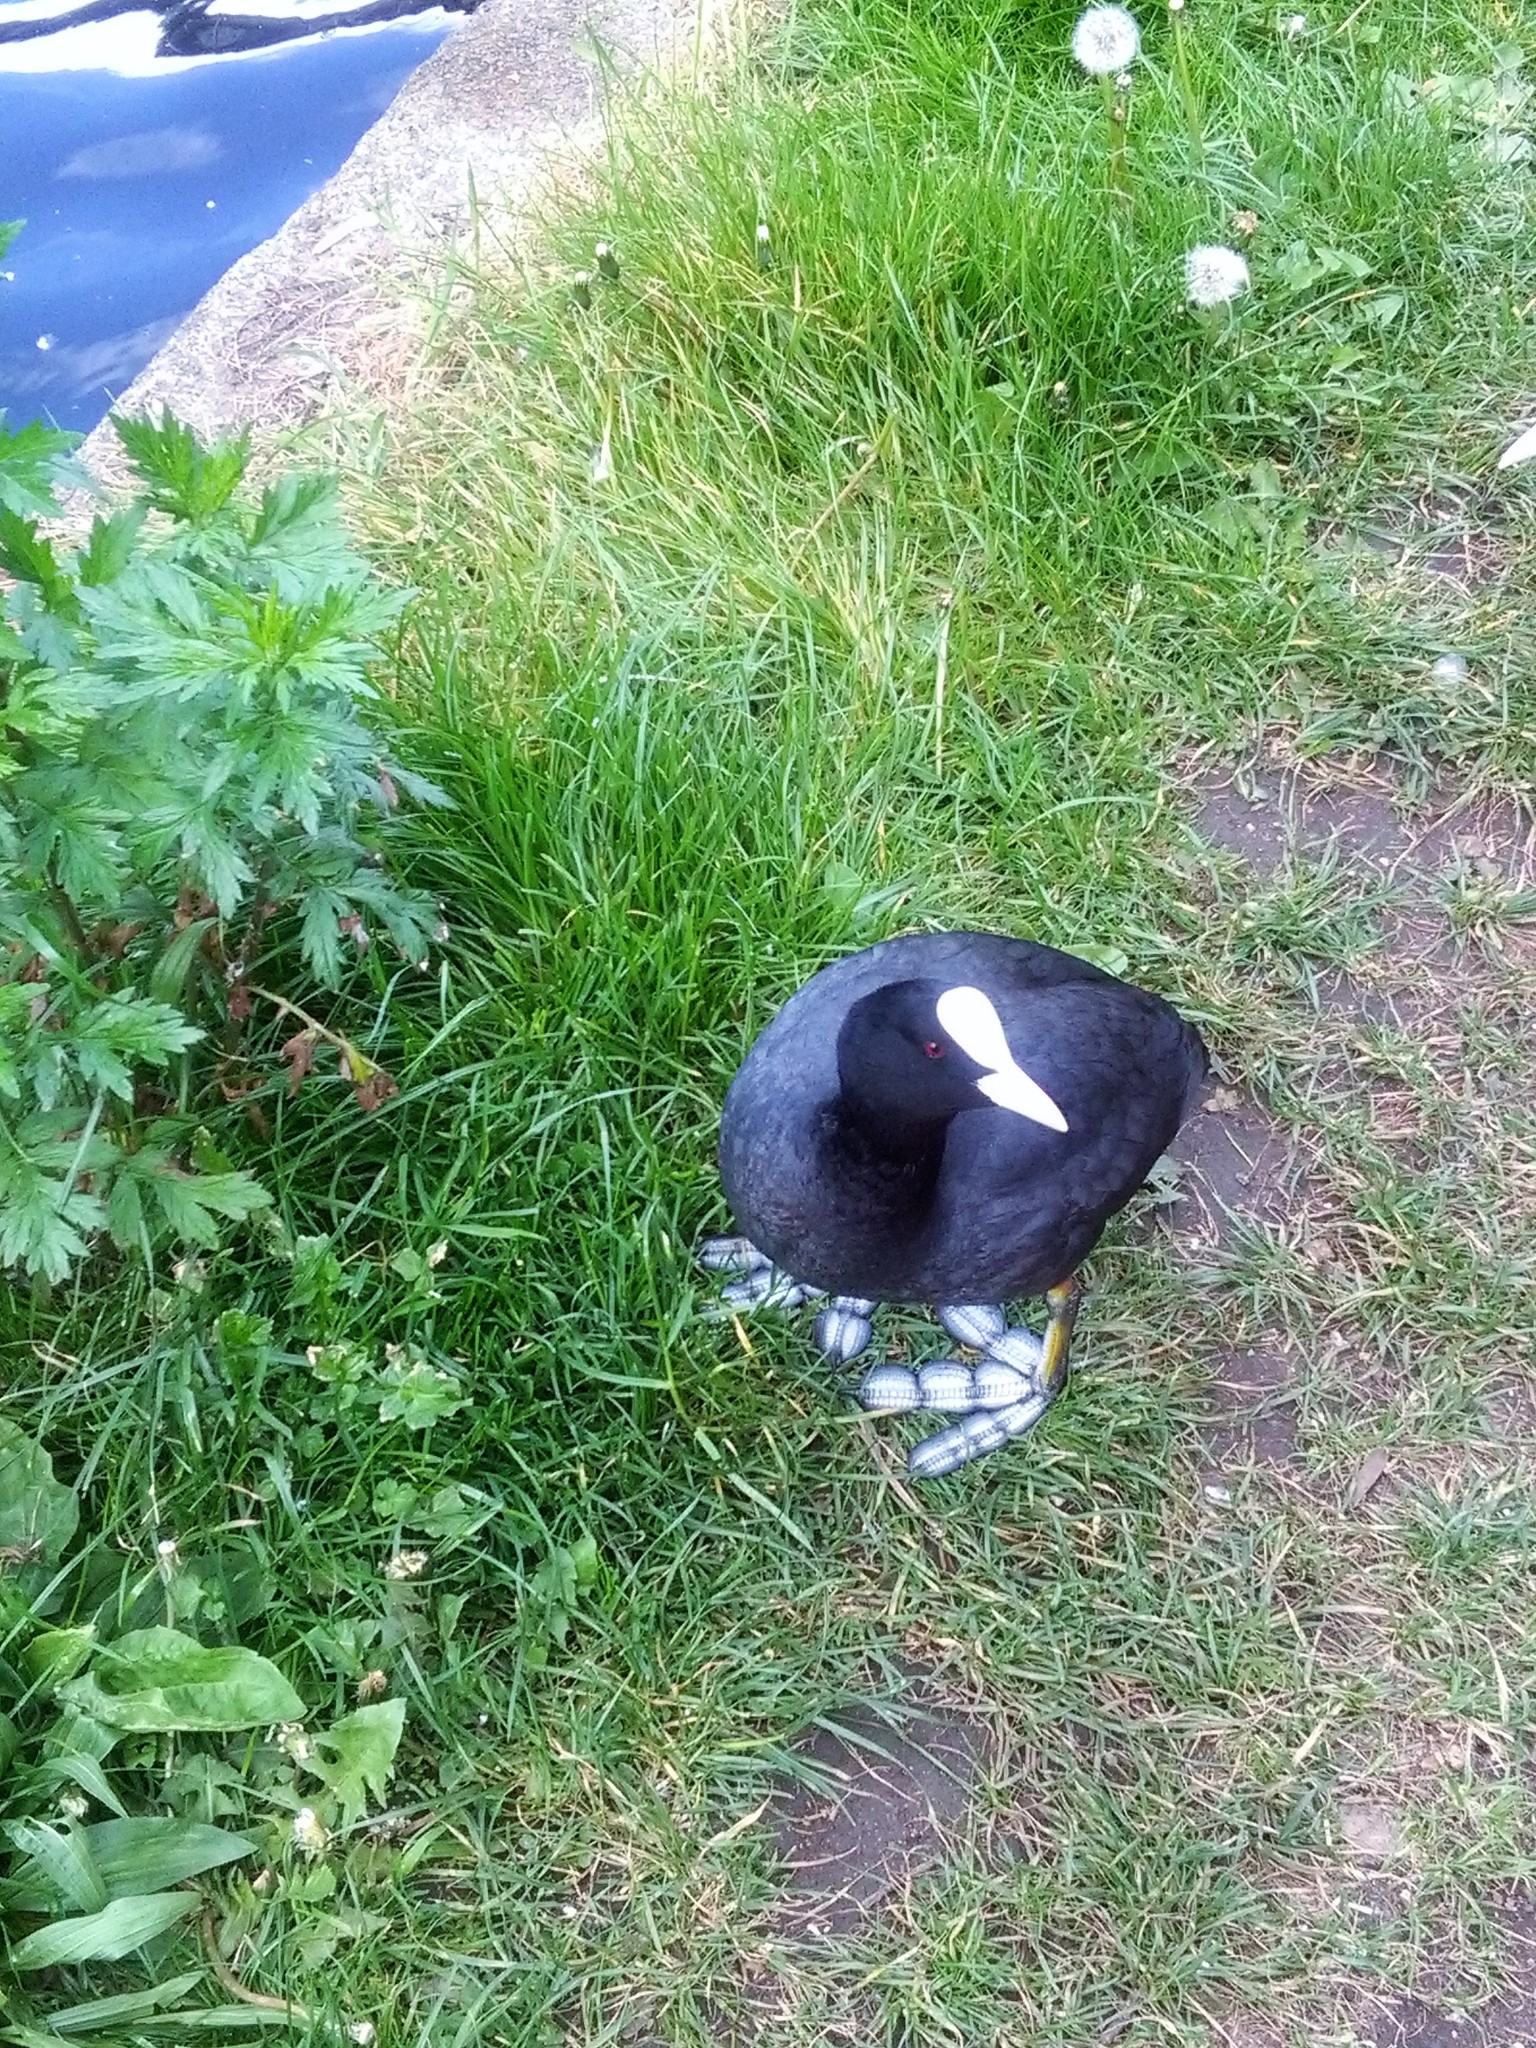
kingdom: Animalia
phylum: Chordata
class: Aves
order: Gruiformes
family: Rallidae
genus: Fulica
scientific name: Fulica atra
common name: Eurasian coot
